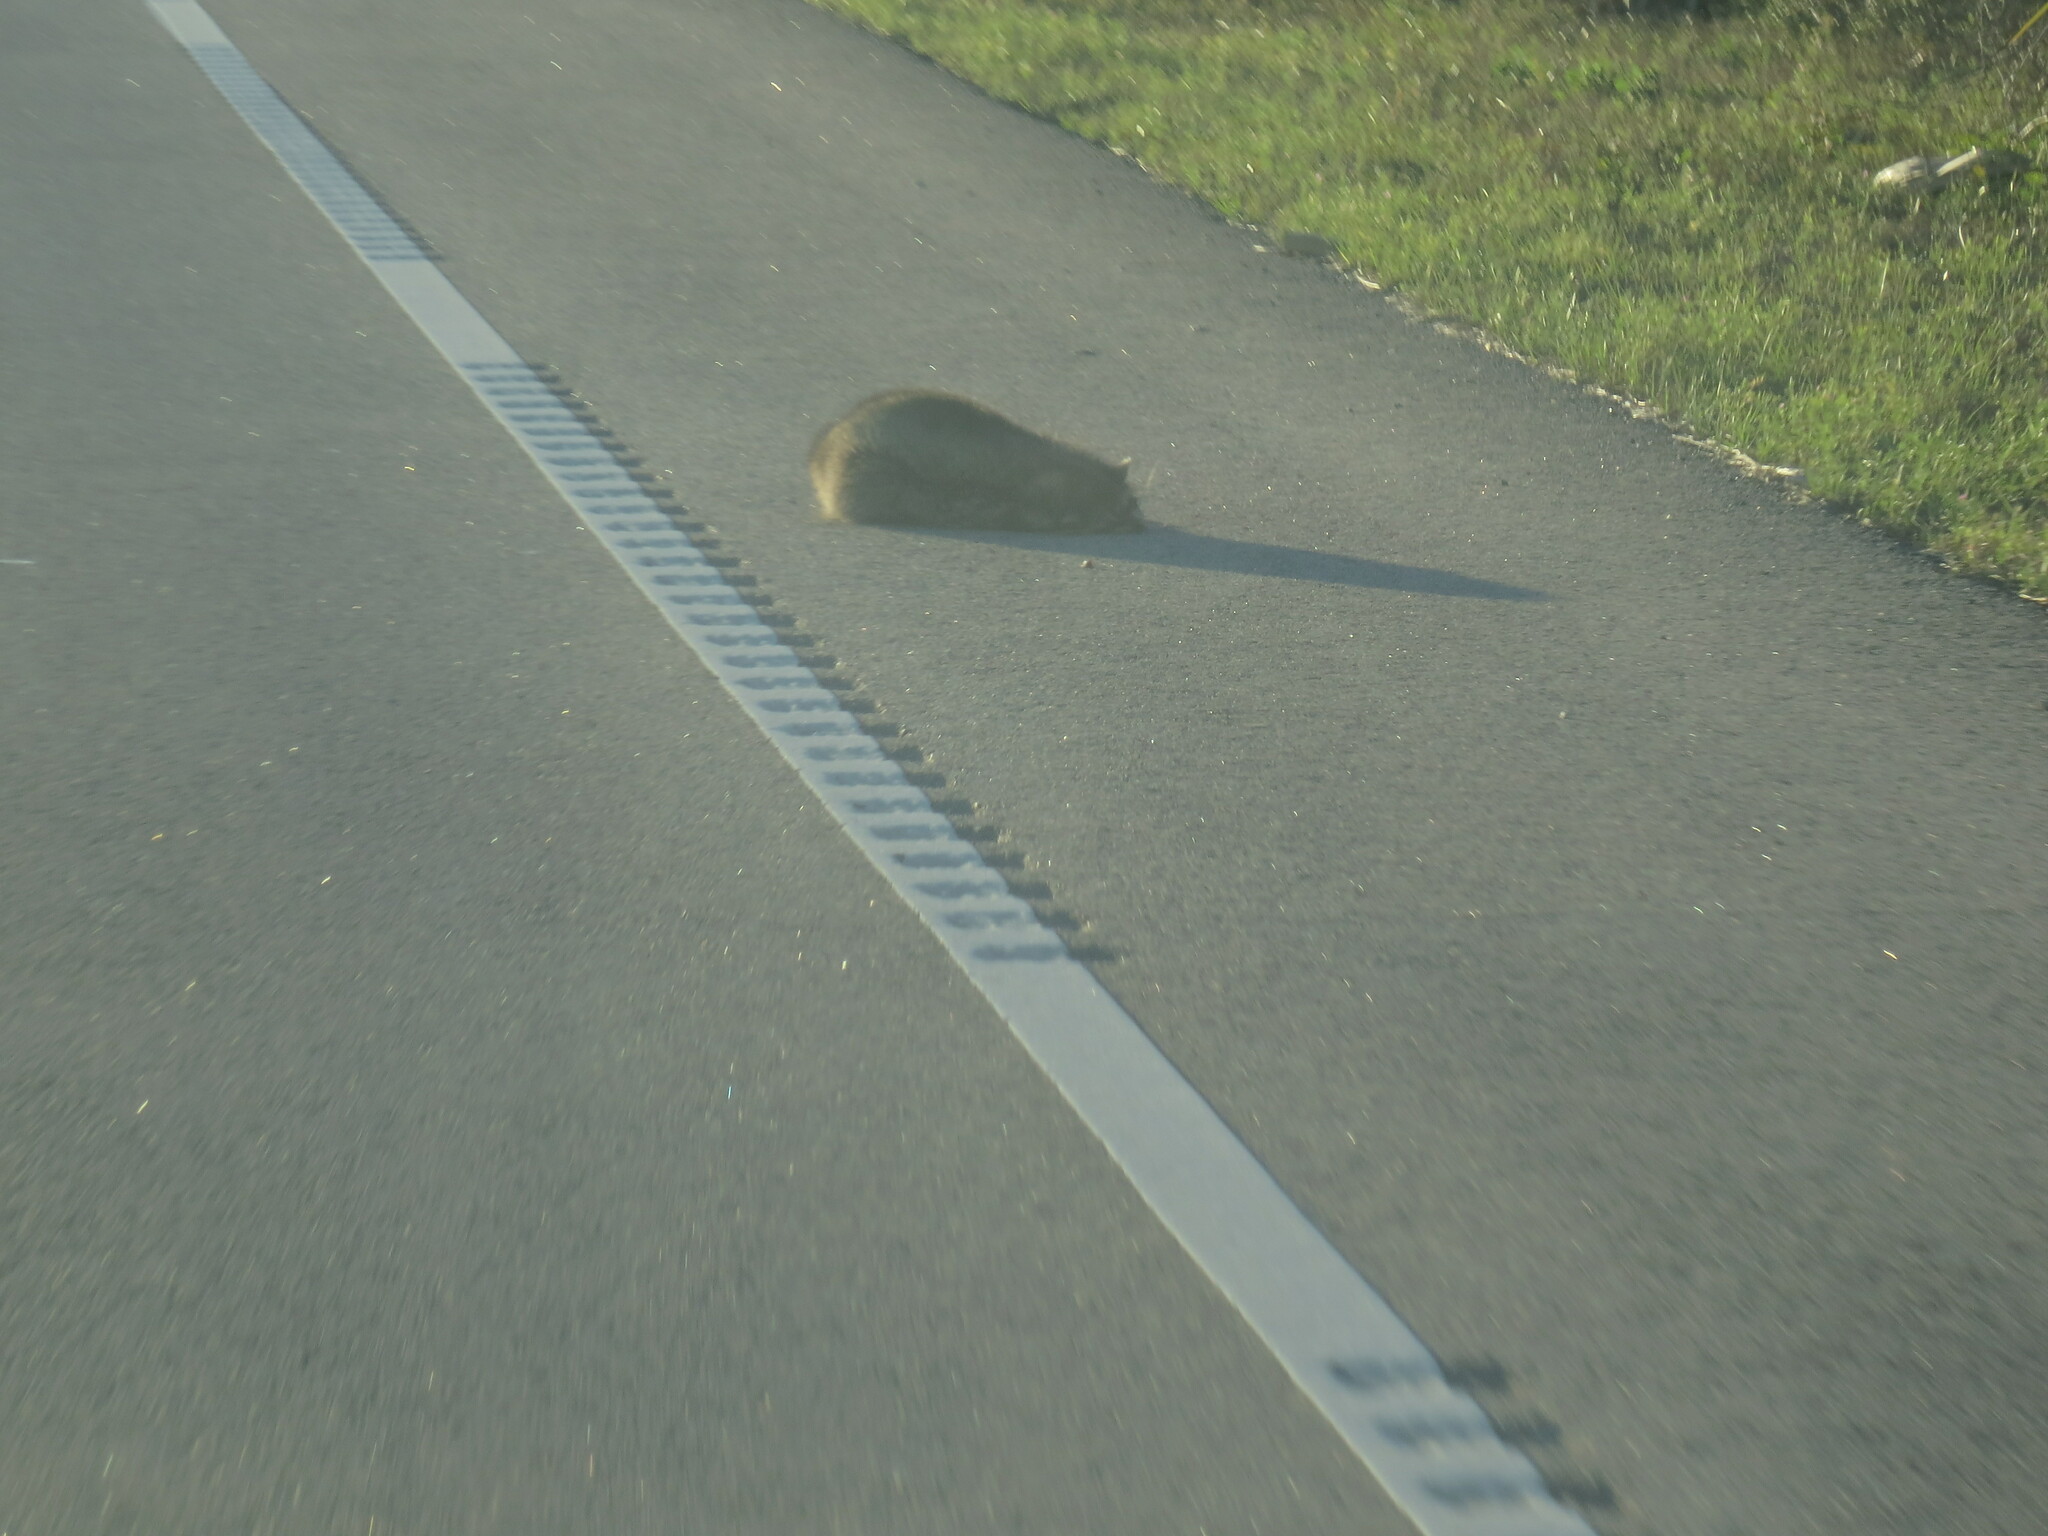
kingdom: Animalia
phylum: Chordata
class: Mammalia
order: Carnivora
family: Procyonidae
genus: Procyon
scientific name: Procyon lotor
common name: Raccoon
